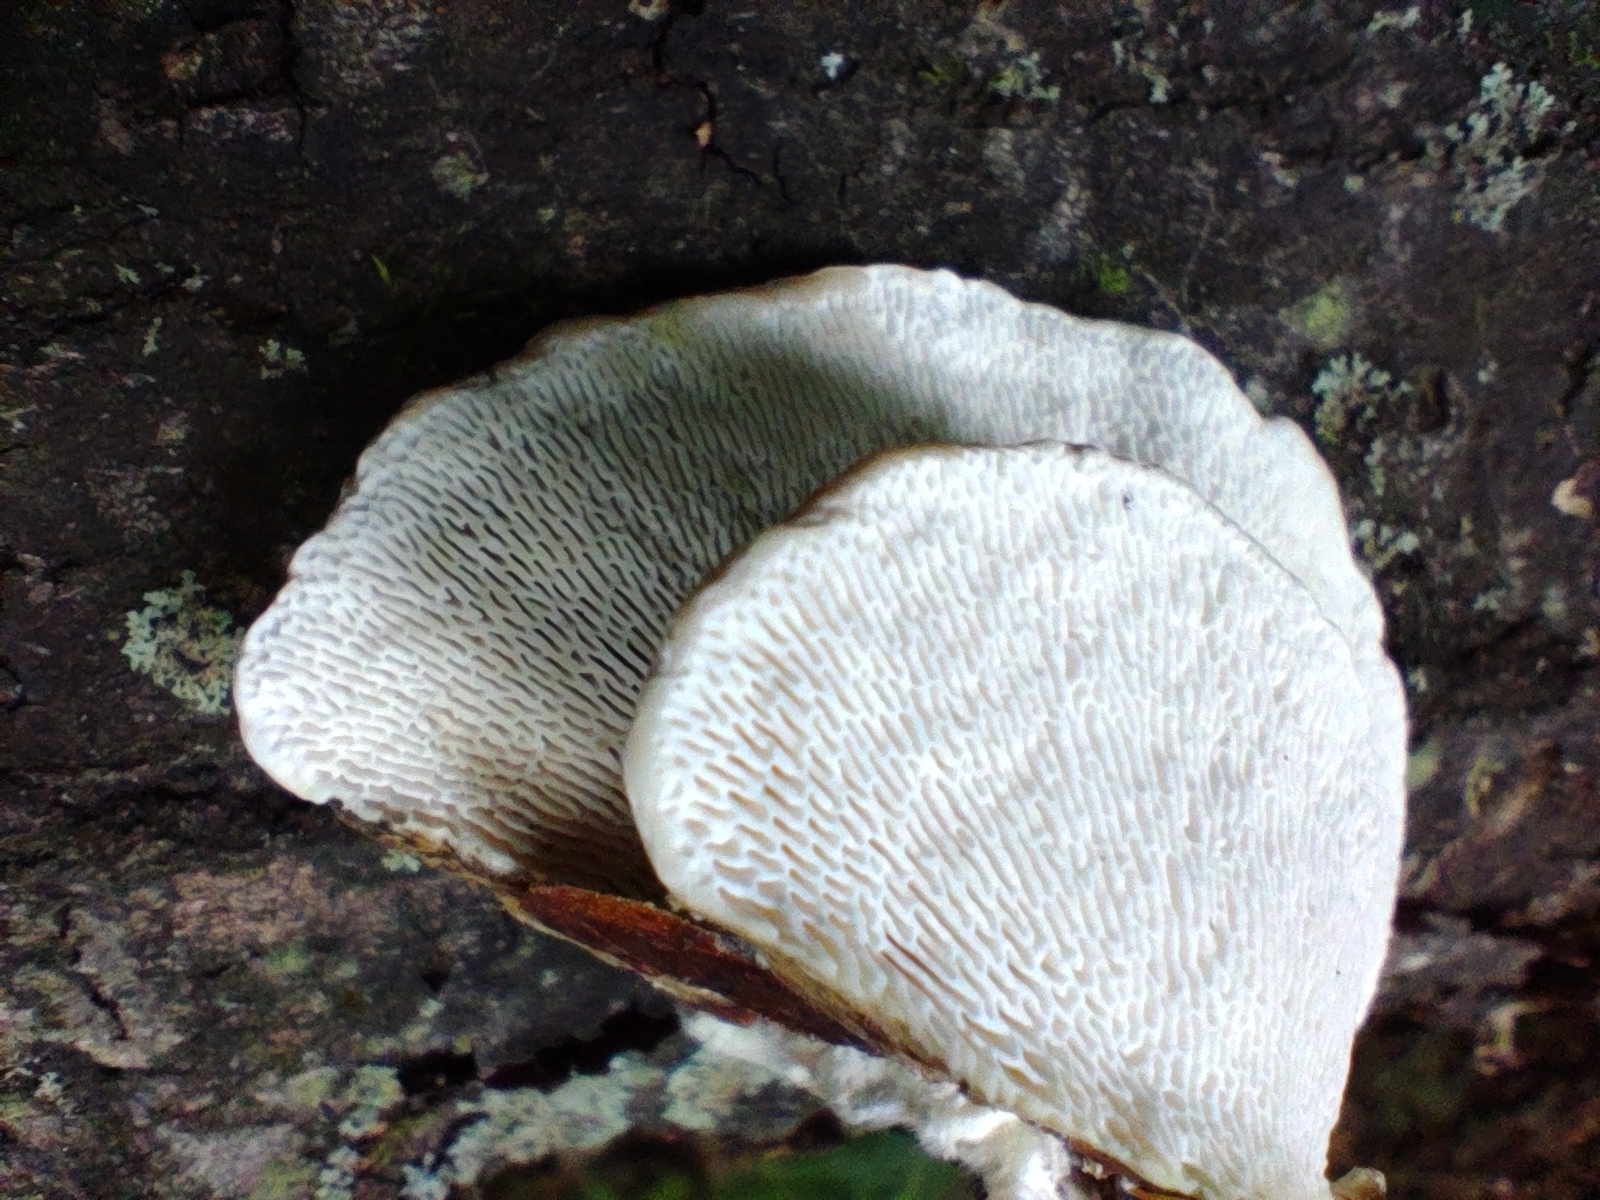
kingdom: Fungi
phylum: Basidiomycota
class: Agaricomycetes
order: Polyporales
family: Polyporaceae
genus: Trametes
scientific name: Trametes gibbosa
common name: Lumpy bracket
